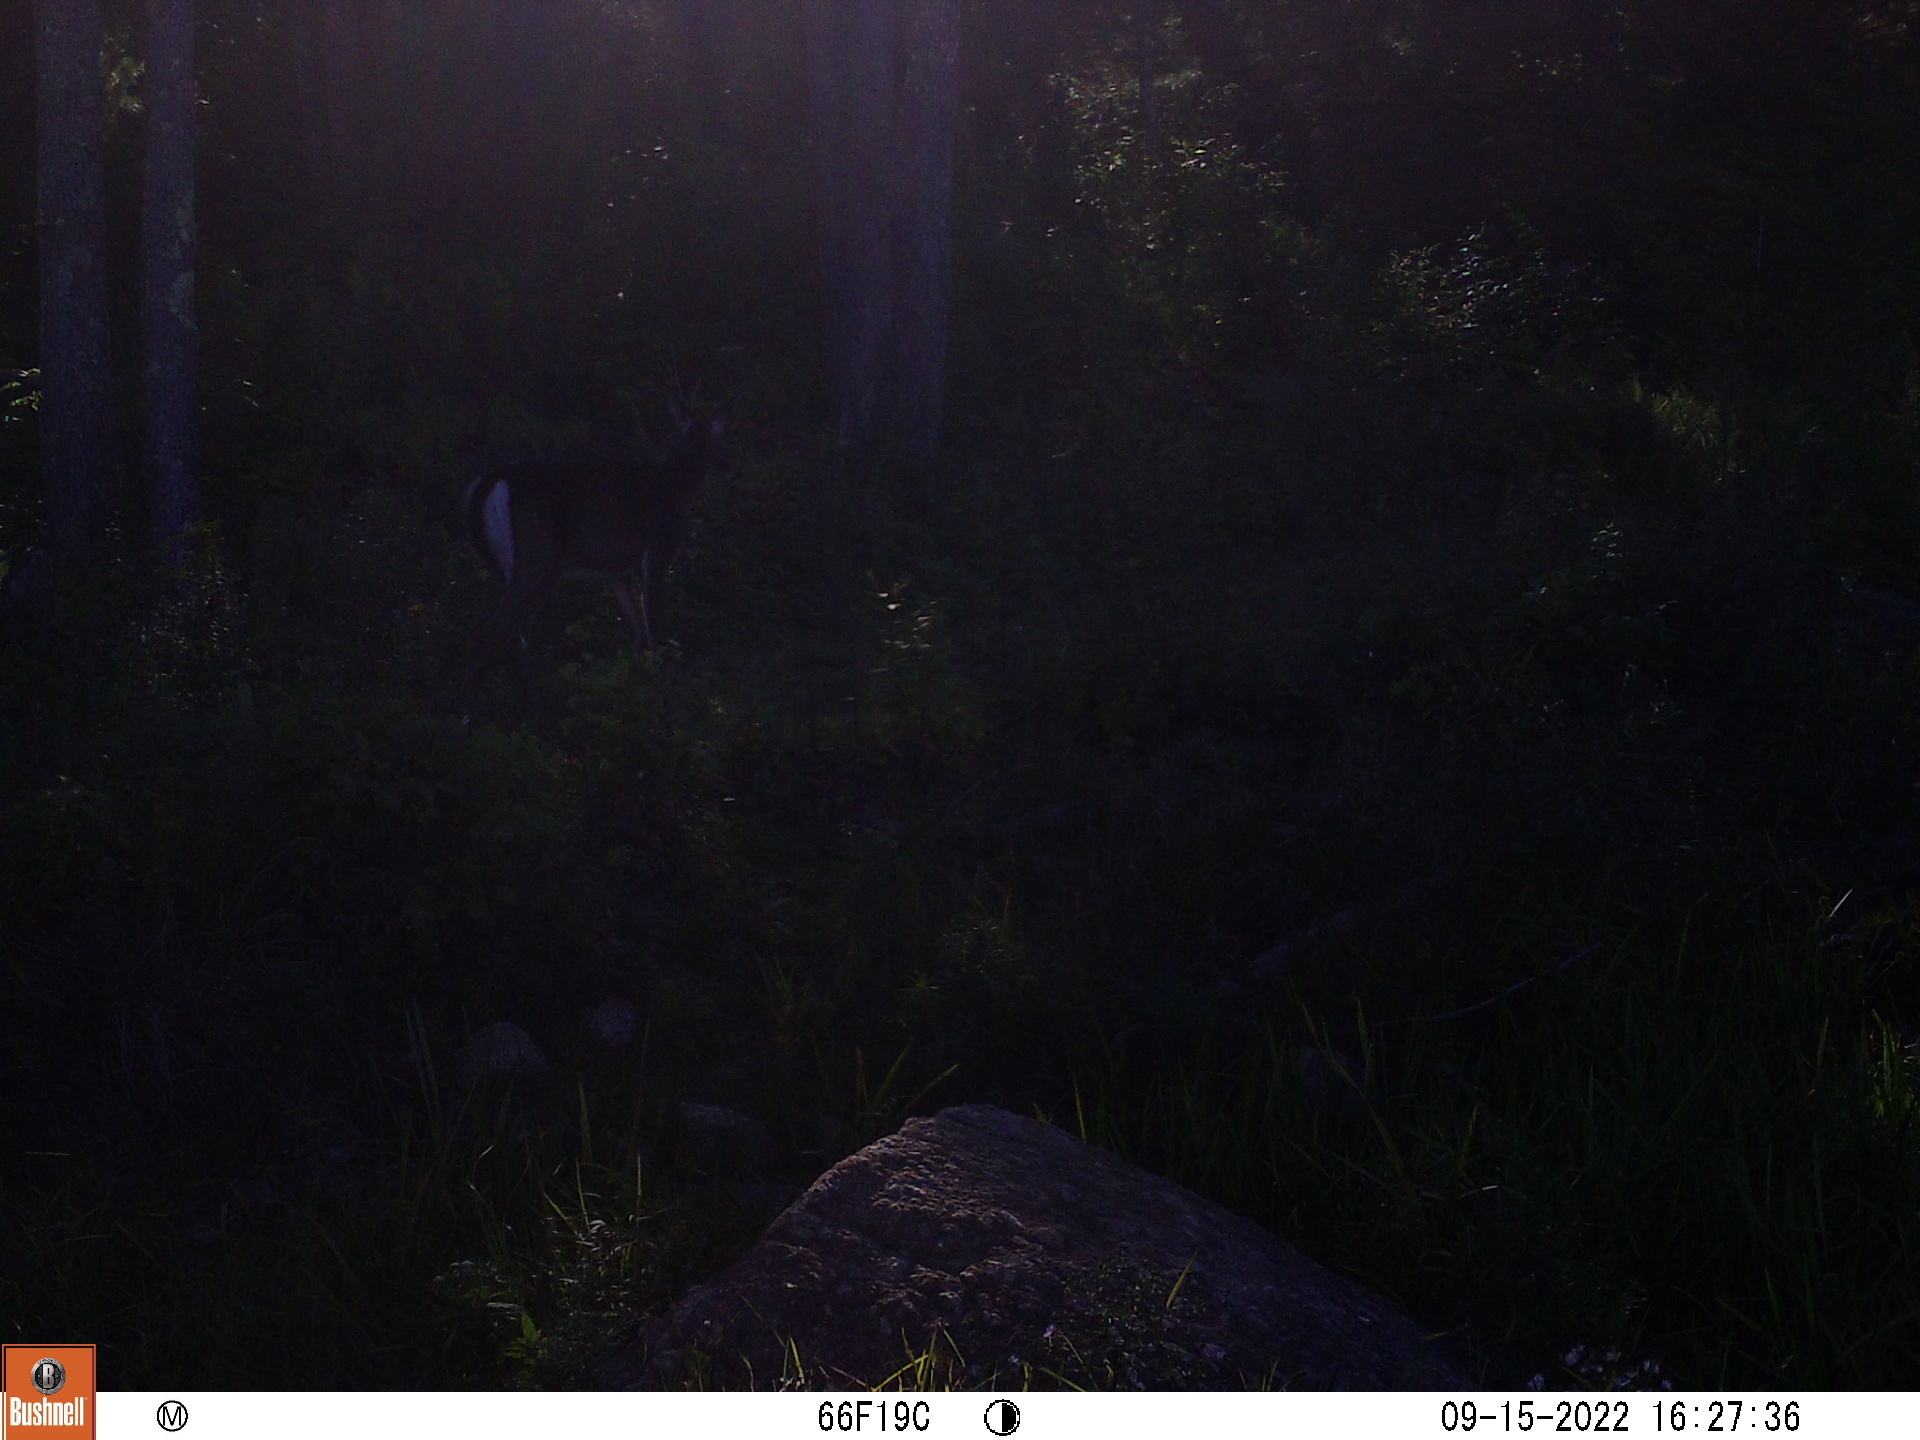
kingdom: Animalia
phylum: Chordata
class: Mammalia
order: Artiodactyla
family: Cervidae
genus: Odocoileus
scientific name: Odocoileus virginianus
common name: White-tailed deer
